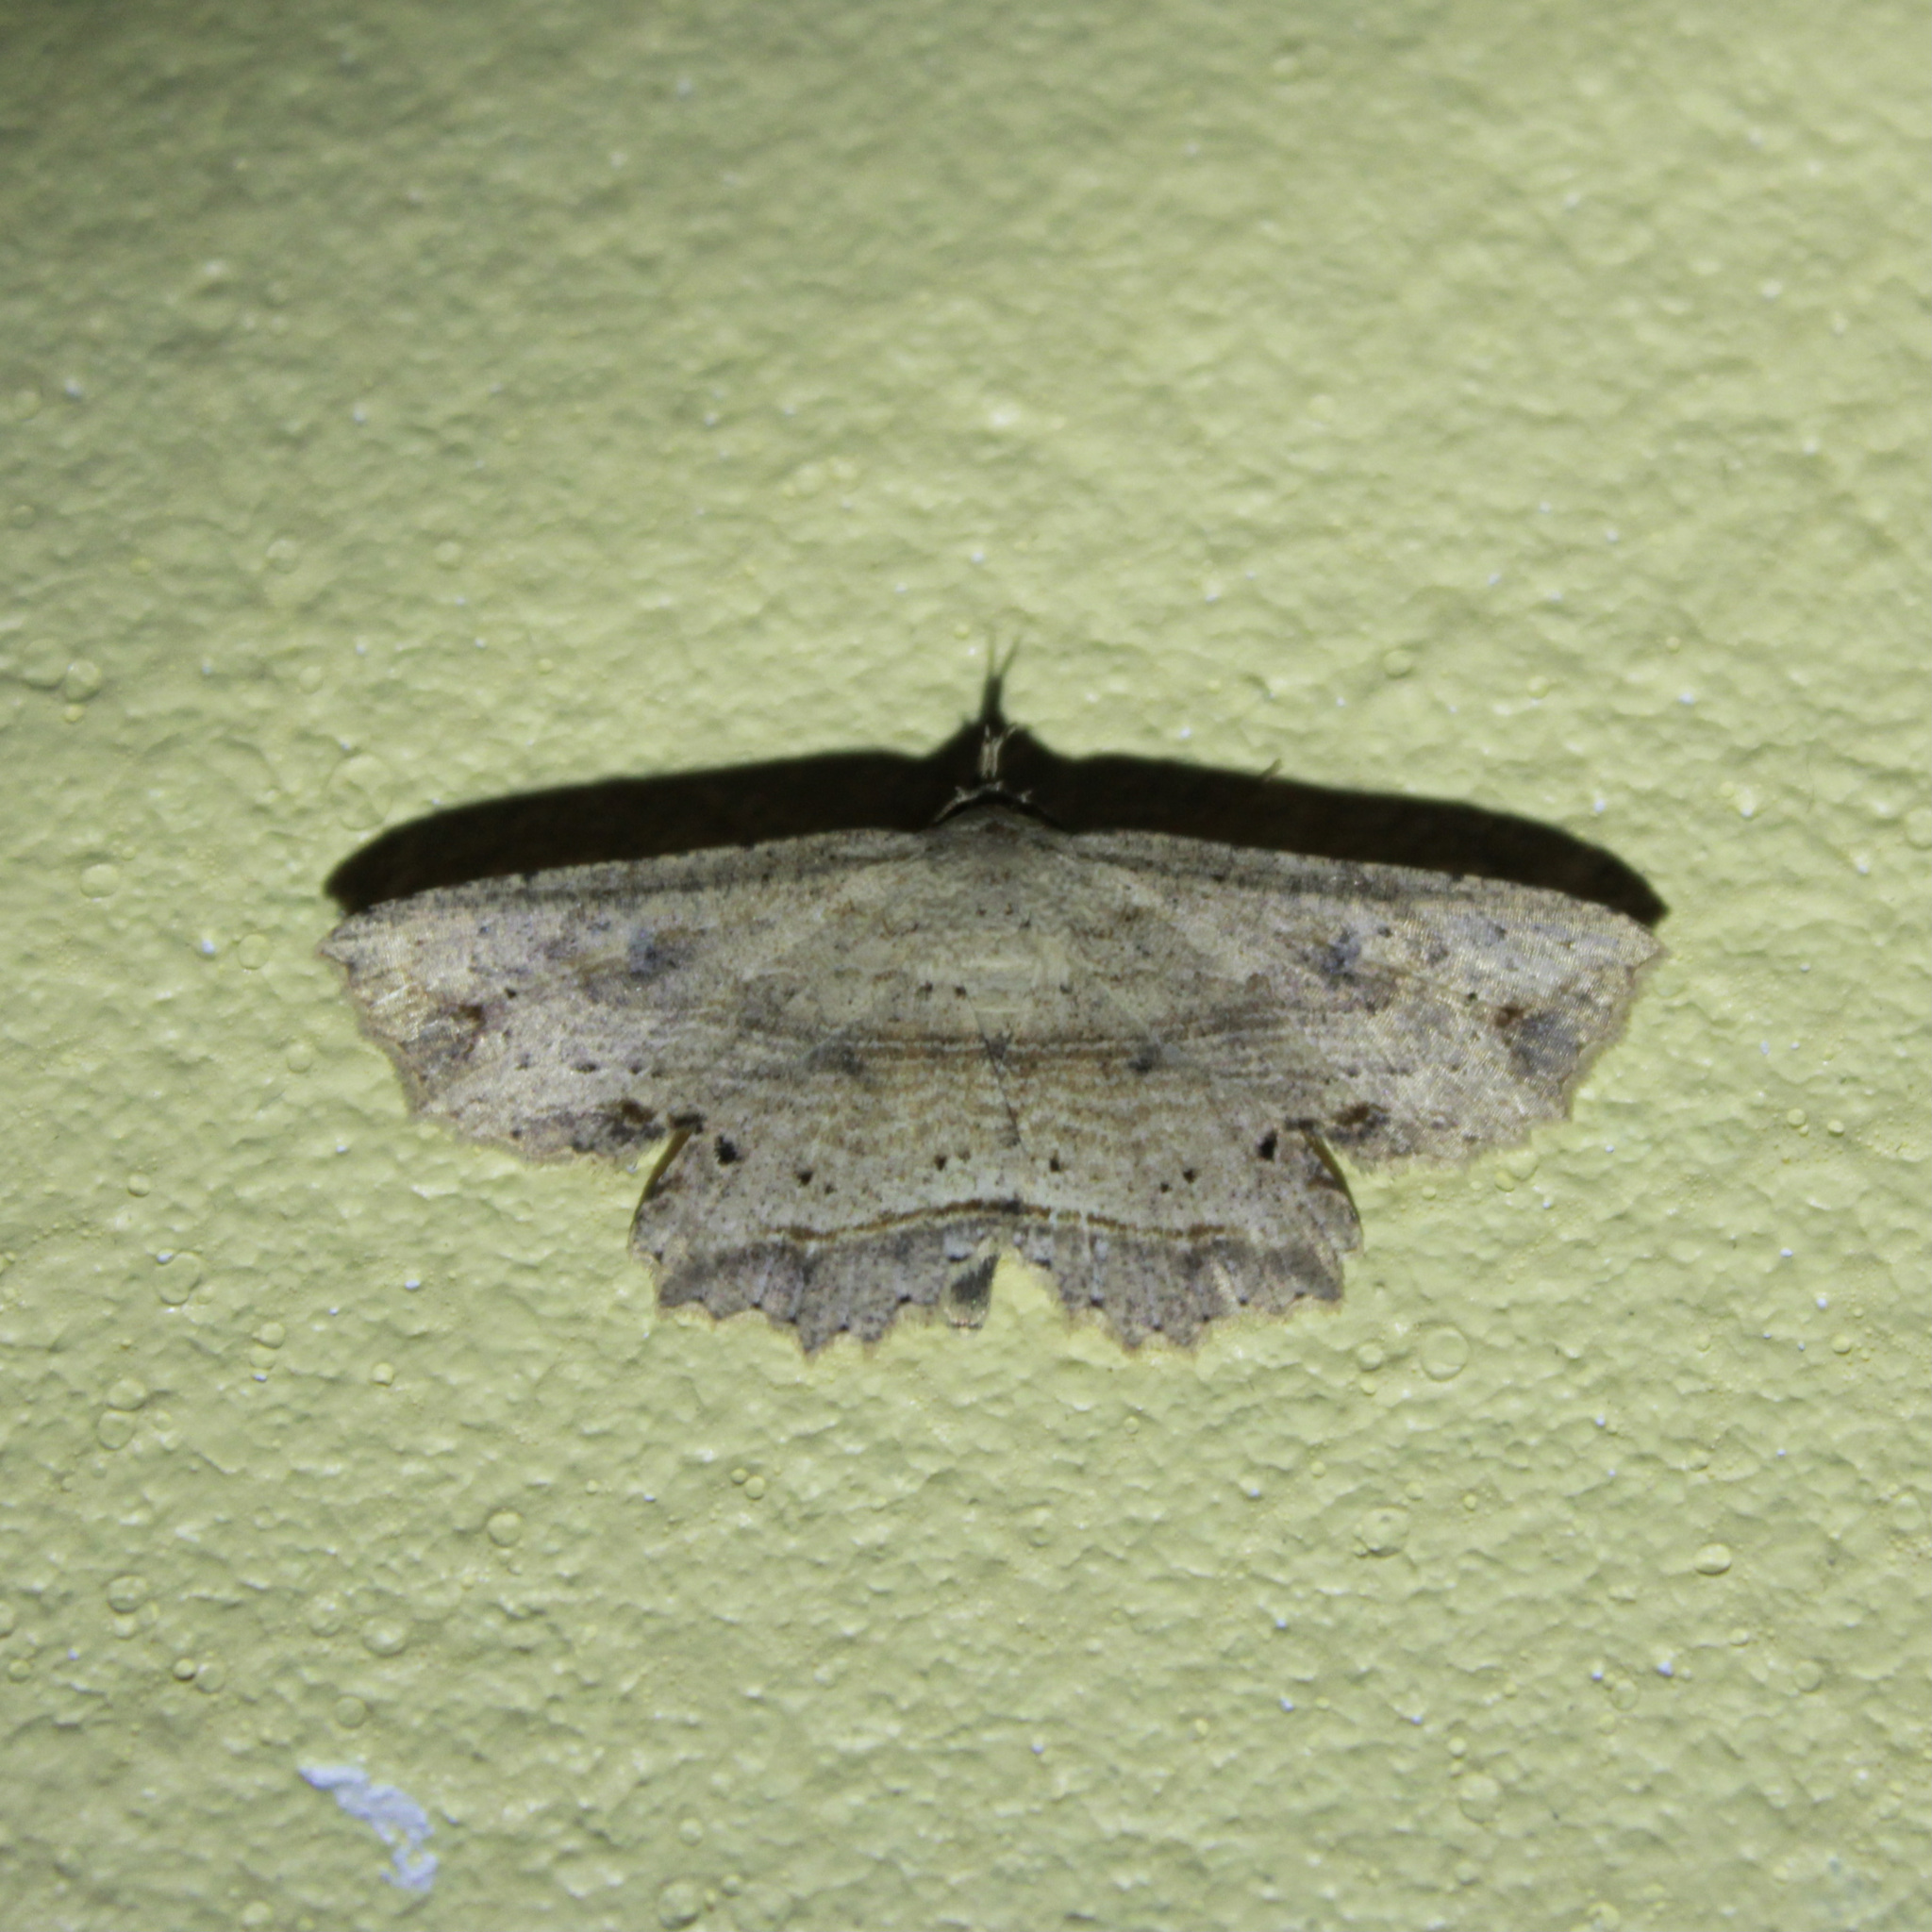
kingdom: Animalia
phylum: Arthropoda
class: Insecta
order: Lepidoptera
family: Erebidae
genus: Oroscopa
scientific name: Oroscopa abluta
